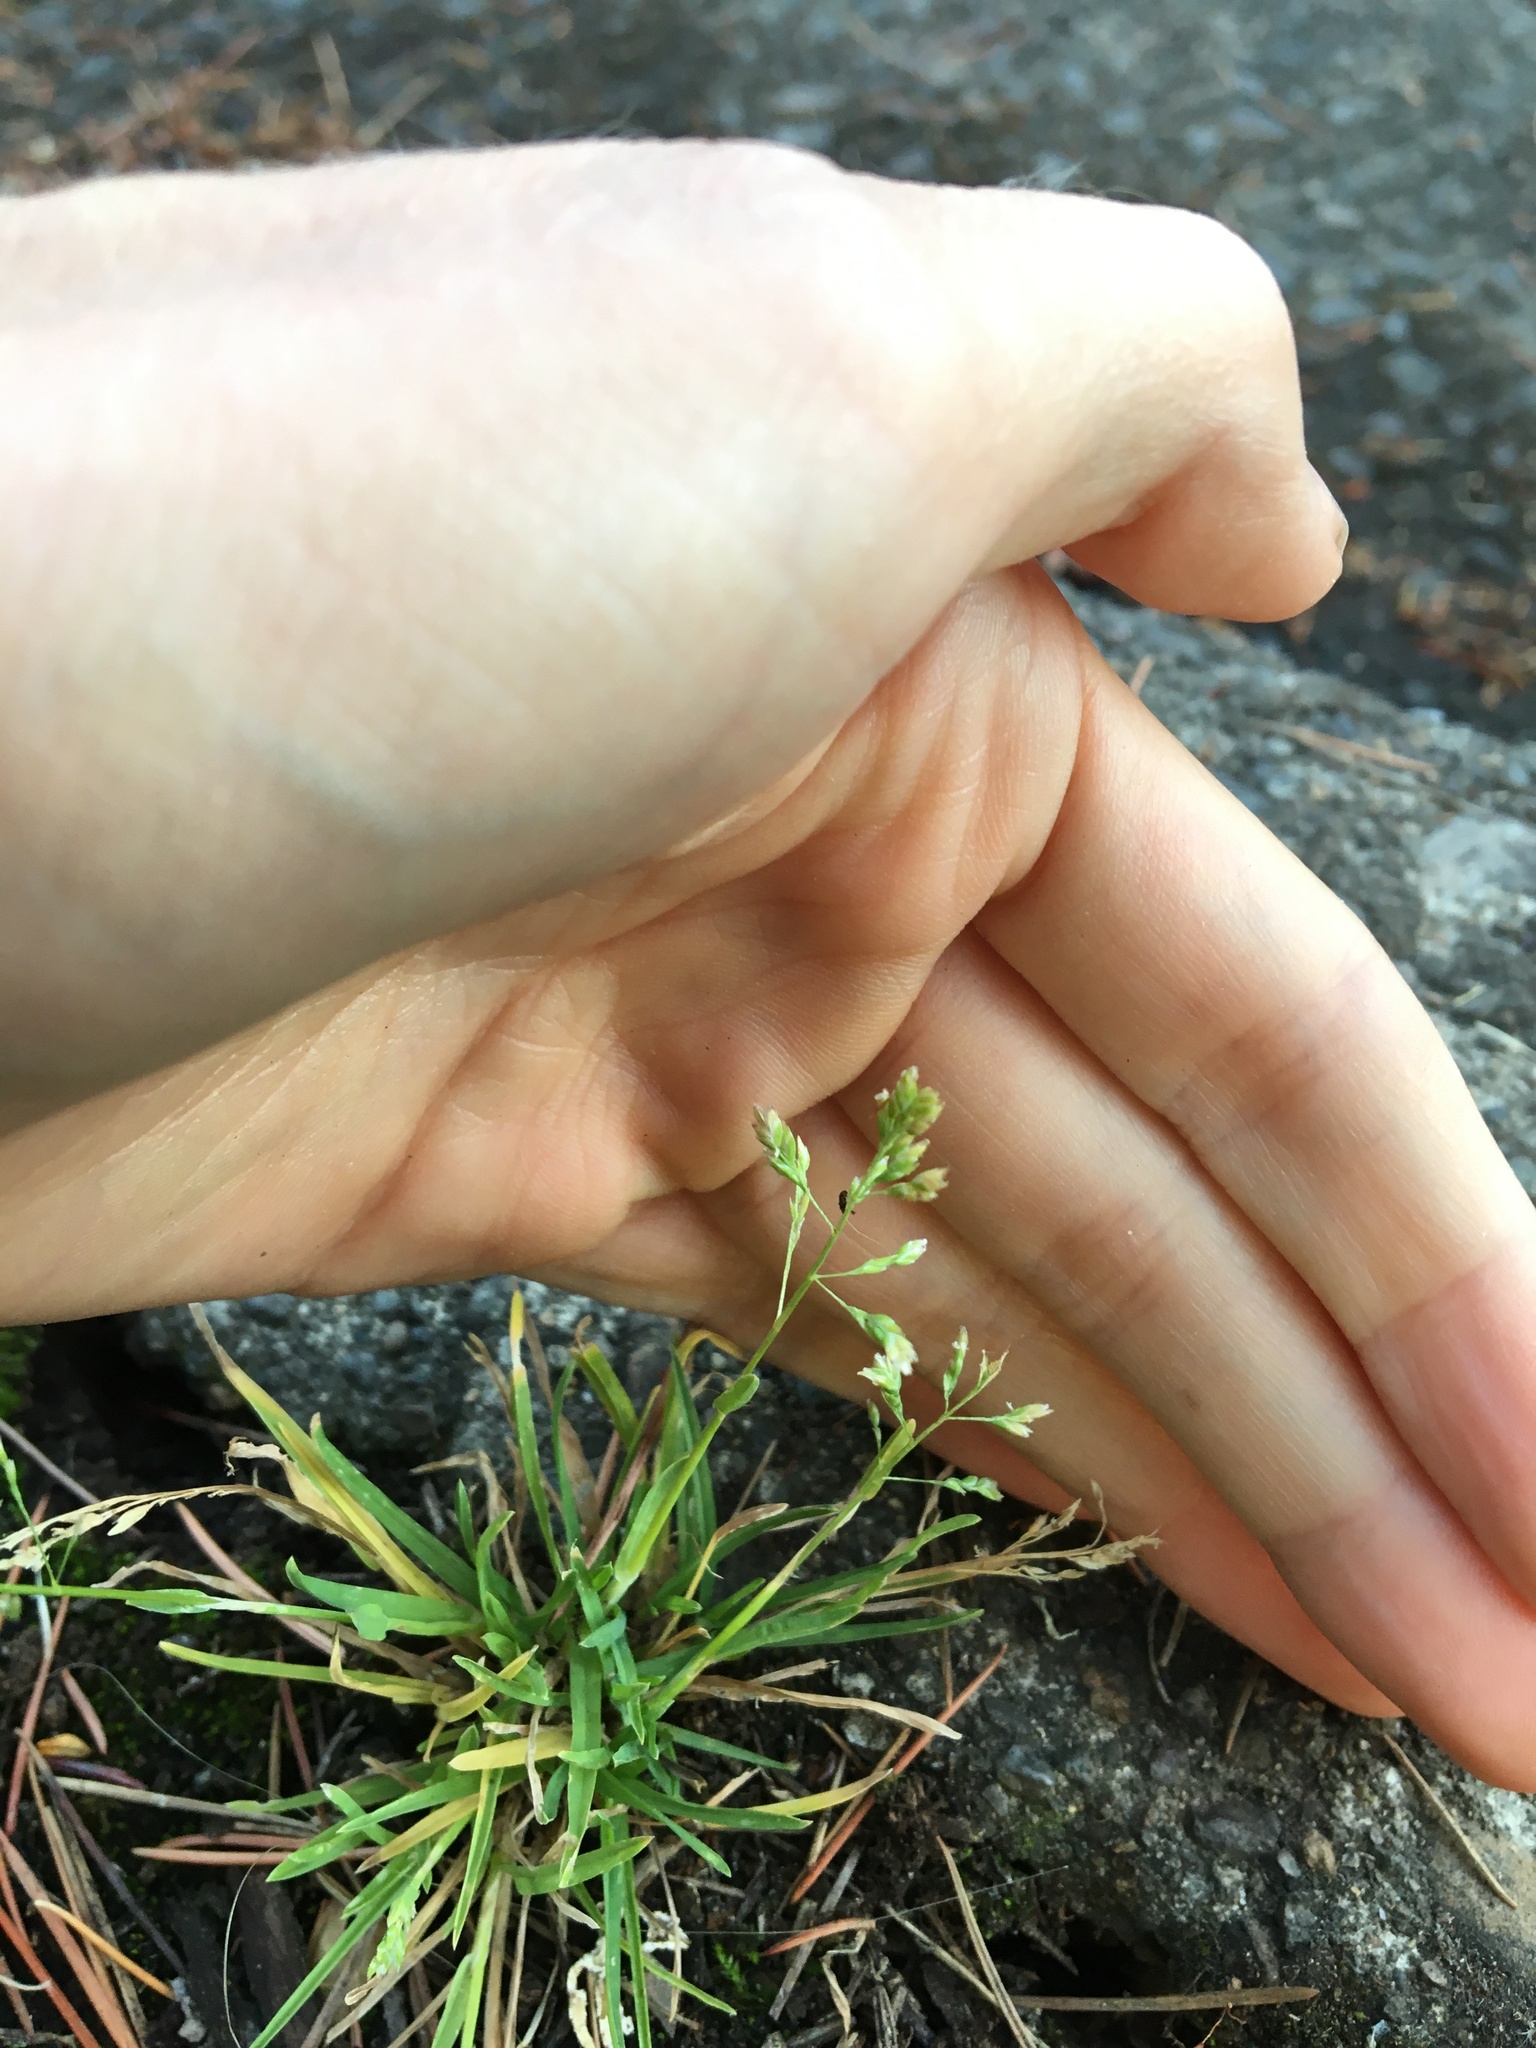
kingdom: Plantae
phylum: Tracheophyta
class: Liliopsida
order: Poales
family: Poaceae
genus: Poa
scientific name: Poa annua
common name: Annual bluegrass
